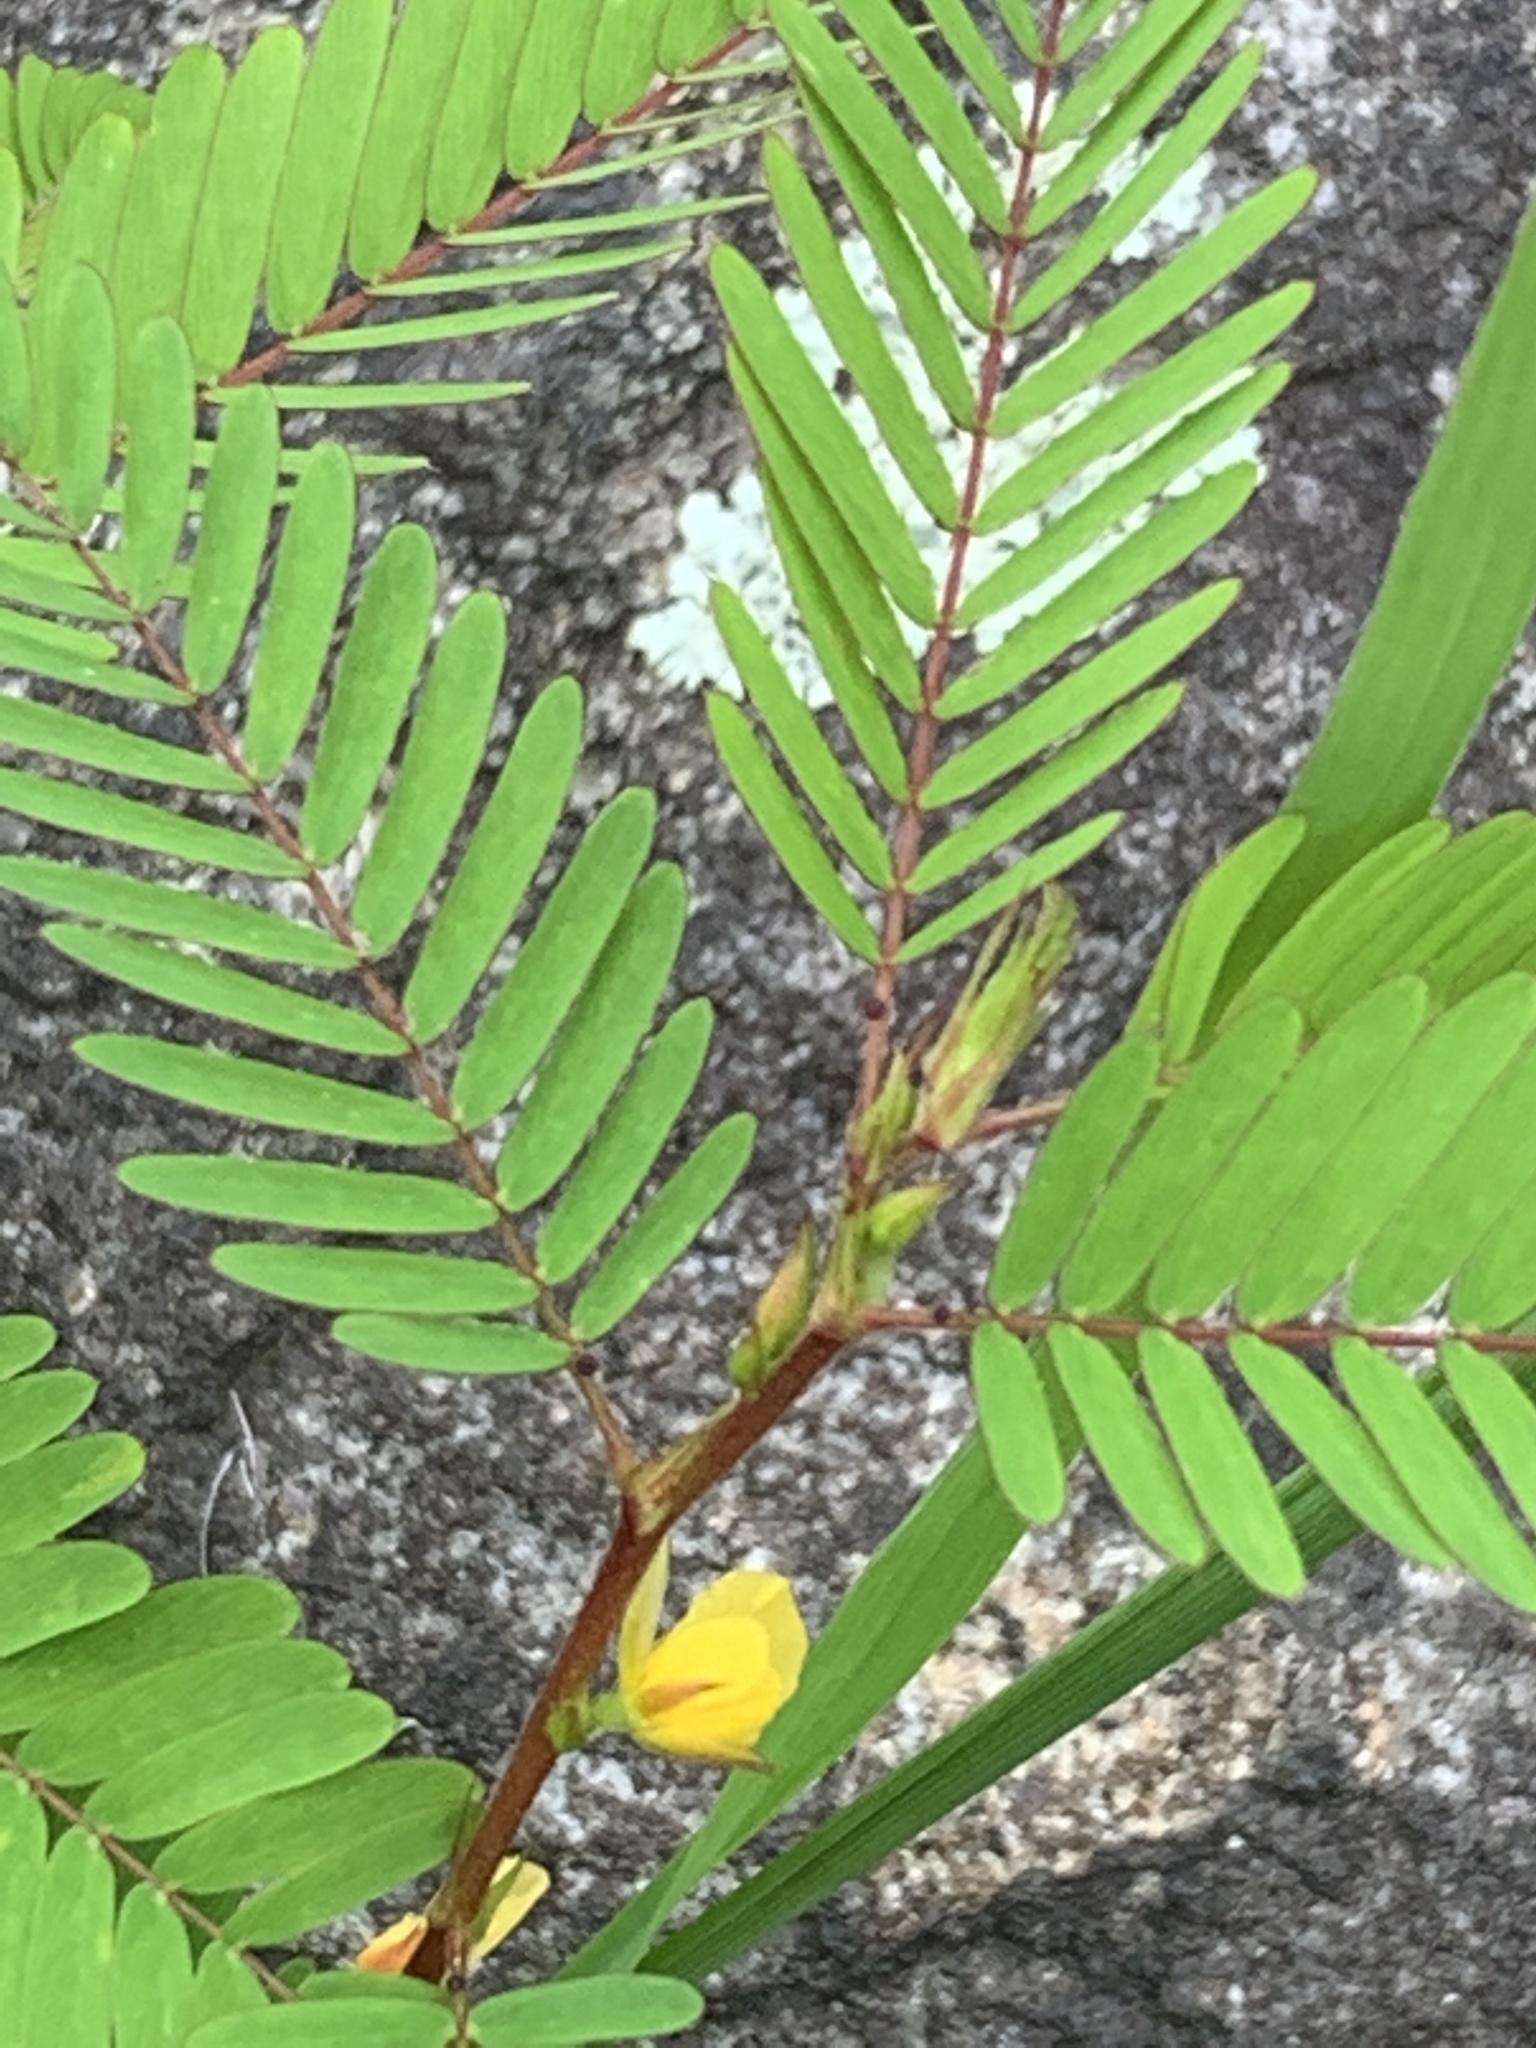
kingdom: Plantae
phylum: Tracheophyta
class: Magnoliopsida
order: Fabales
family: Fabaceae
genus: Chamaecrista
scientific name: Chamaecrista nictitans
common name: Sensitive cassia
